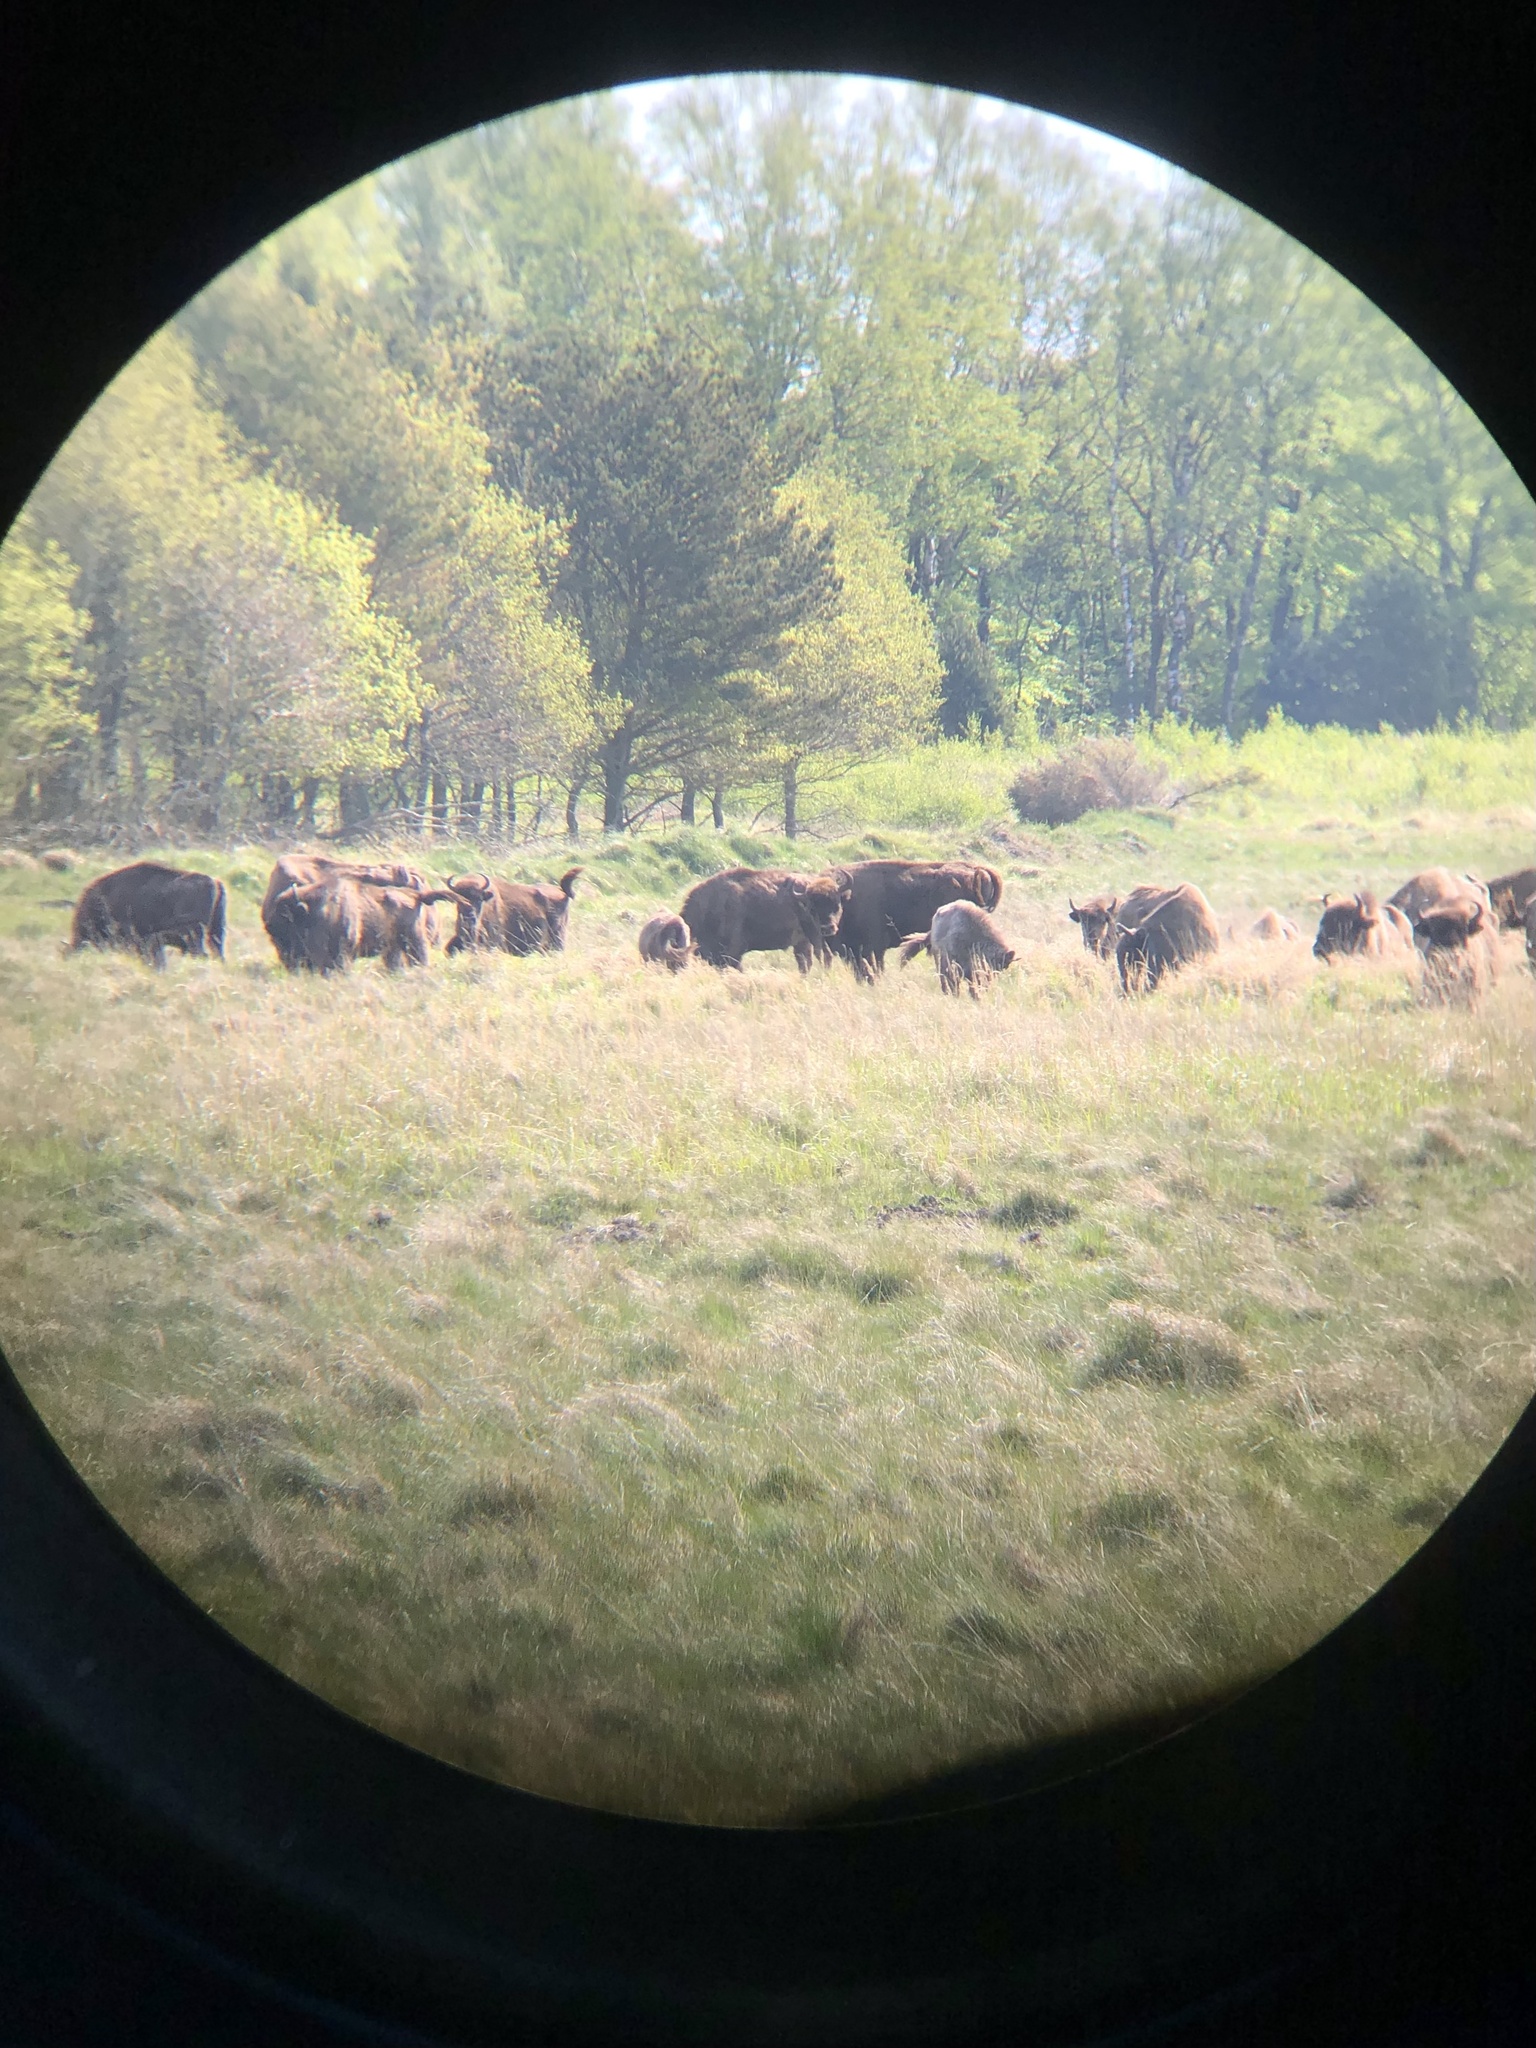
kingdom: Animalia
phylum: Chordata
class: Mammalia
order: Artiodactyla
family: Bovidae
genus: Bison
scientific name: Bison bonasus
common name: European bison
